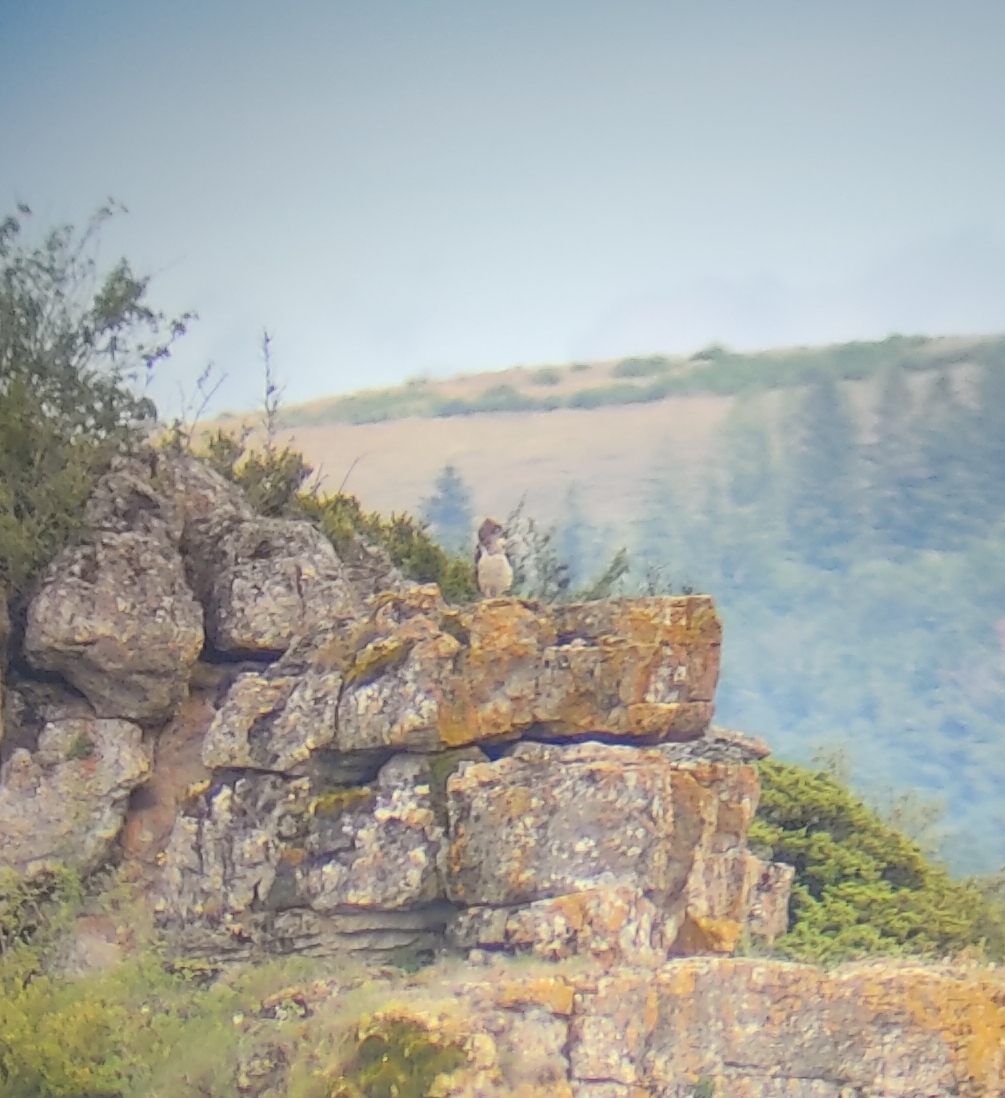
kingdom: Animalia
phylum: Chordata
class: Aves
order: Accipitriformes
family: Accipitridae
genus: Circaetus
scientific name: Circaetus gallicus
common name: Short-toed snake eagle
